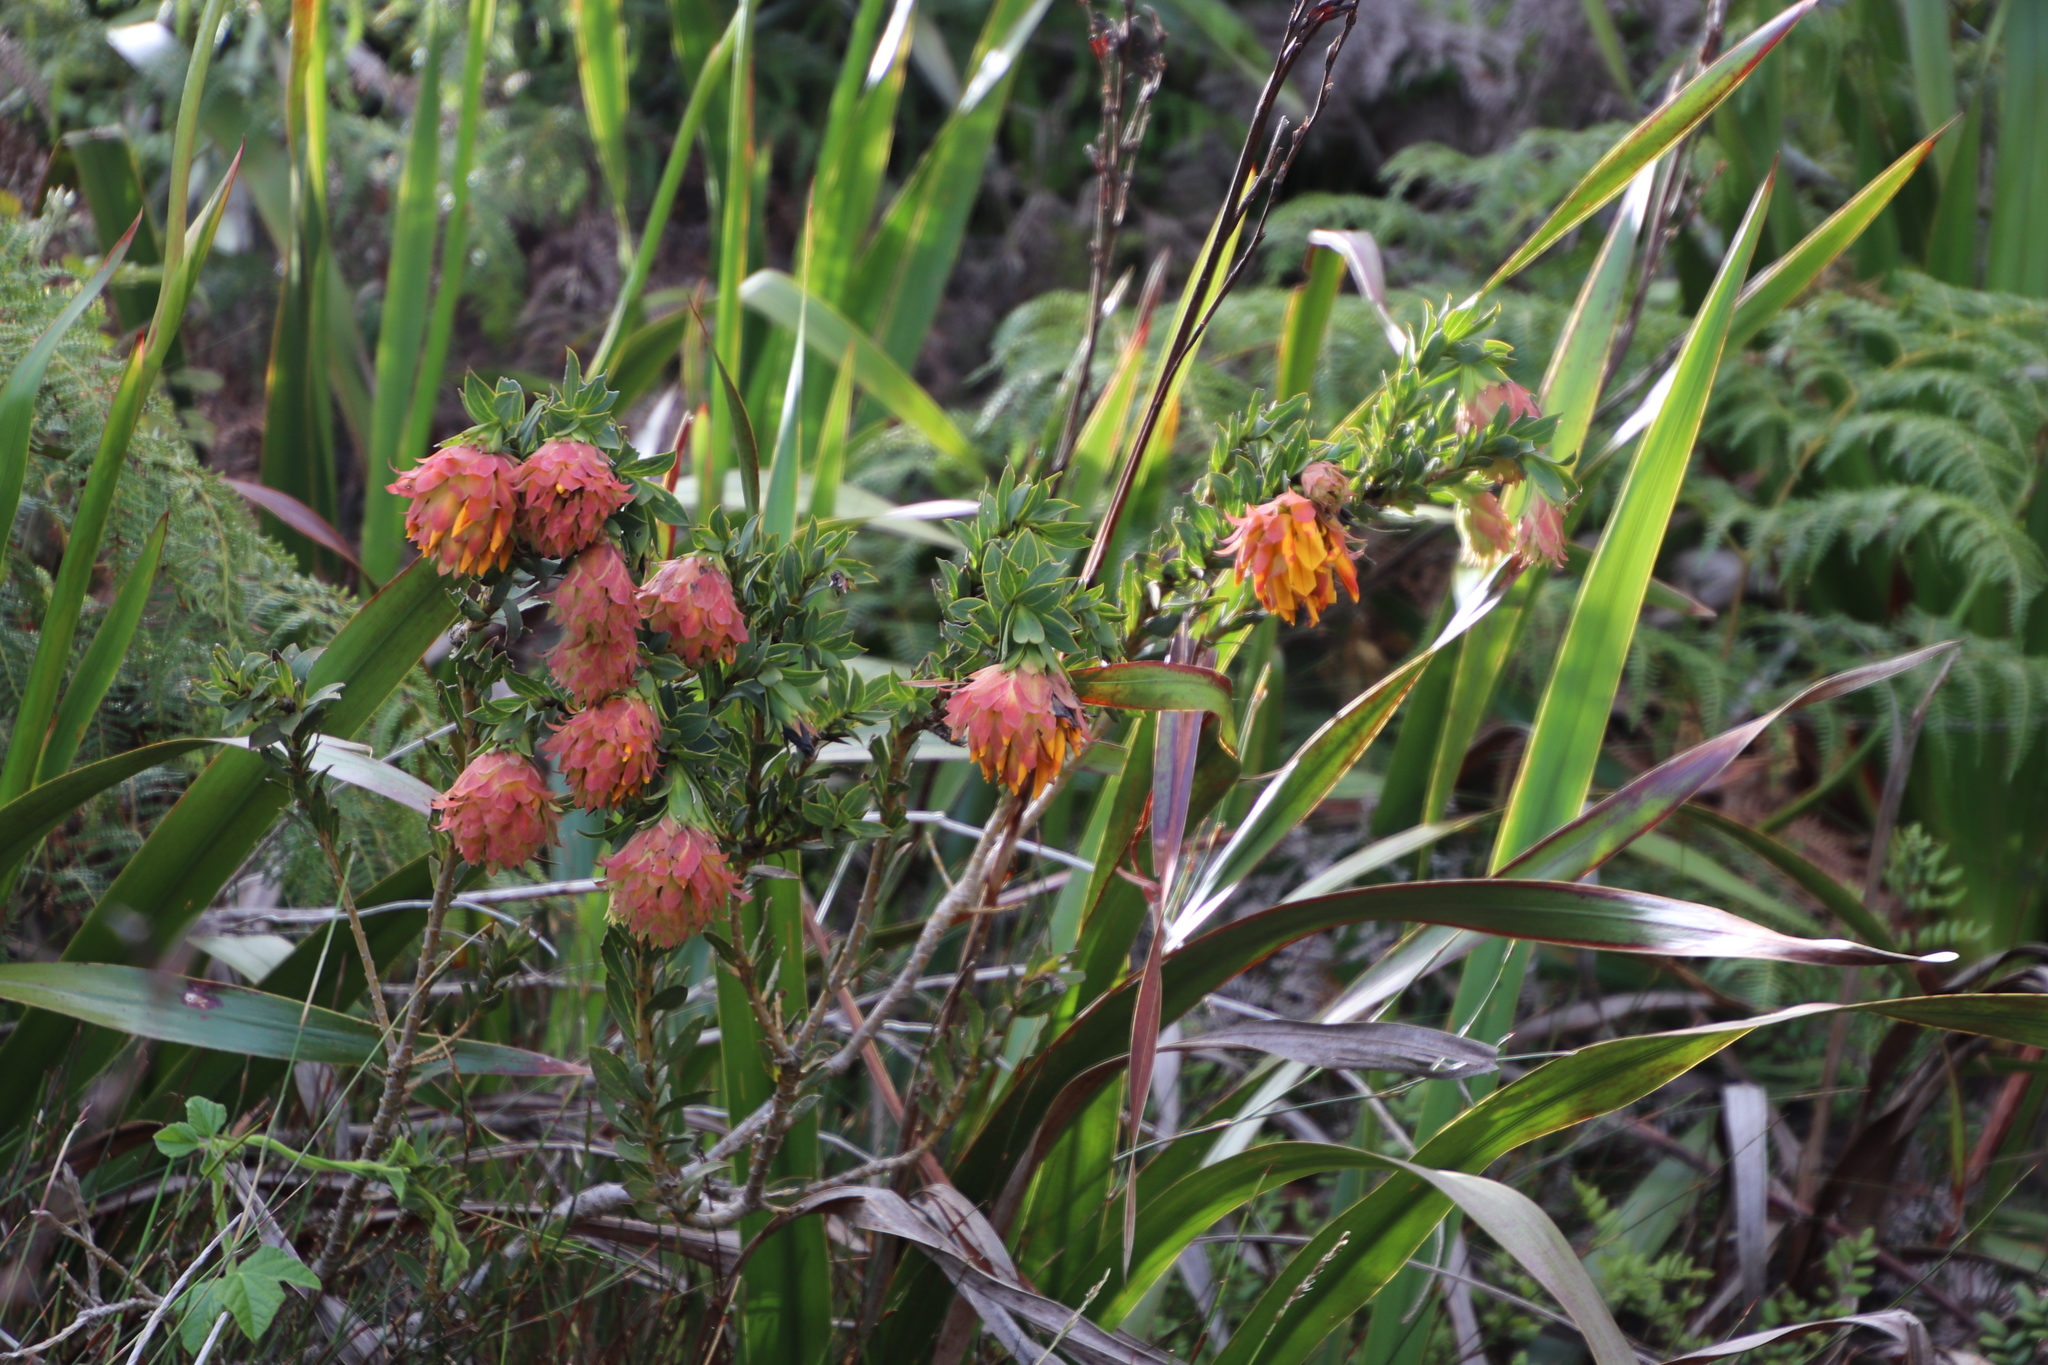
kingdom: Plantae
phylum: Tracheophyta
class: Magnoliopsida
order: Fabales
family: Fabaceae
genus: Liparia
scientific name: Liparia splendens
